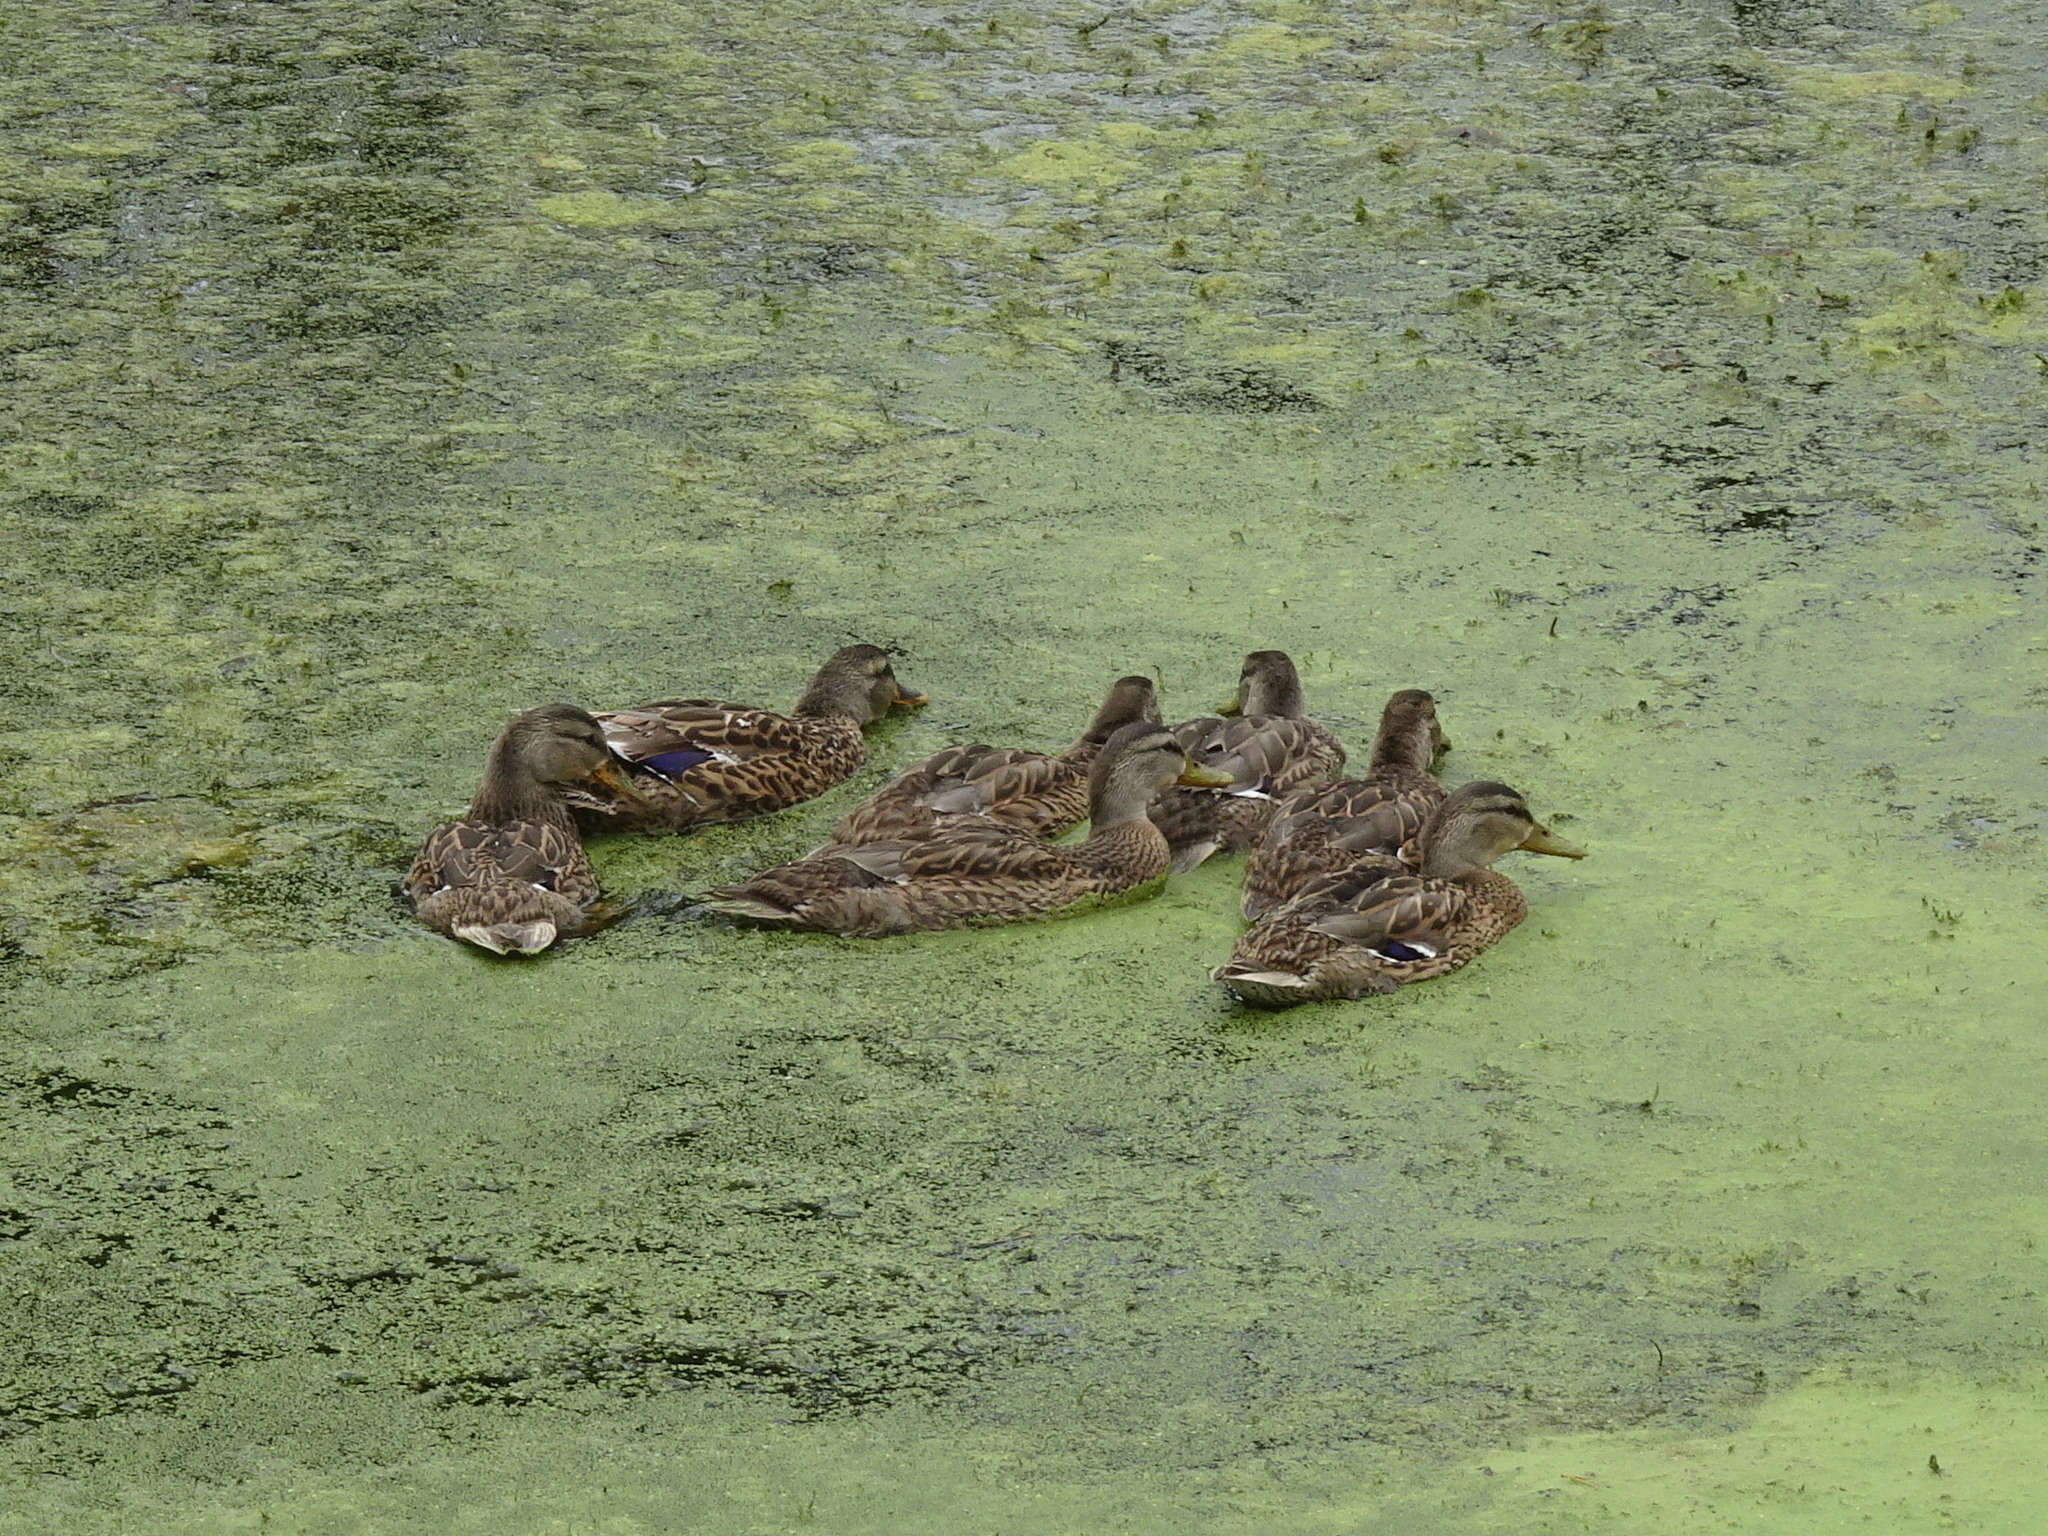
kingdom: Animalia
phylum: Chordata
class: Aves
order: Anseriformes
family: Anatidae
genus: Anas
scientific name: Anas platyrhynchos
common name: Mallard
